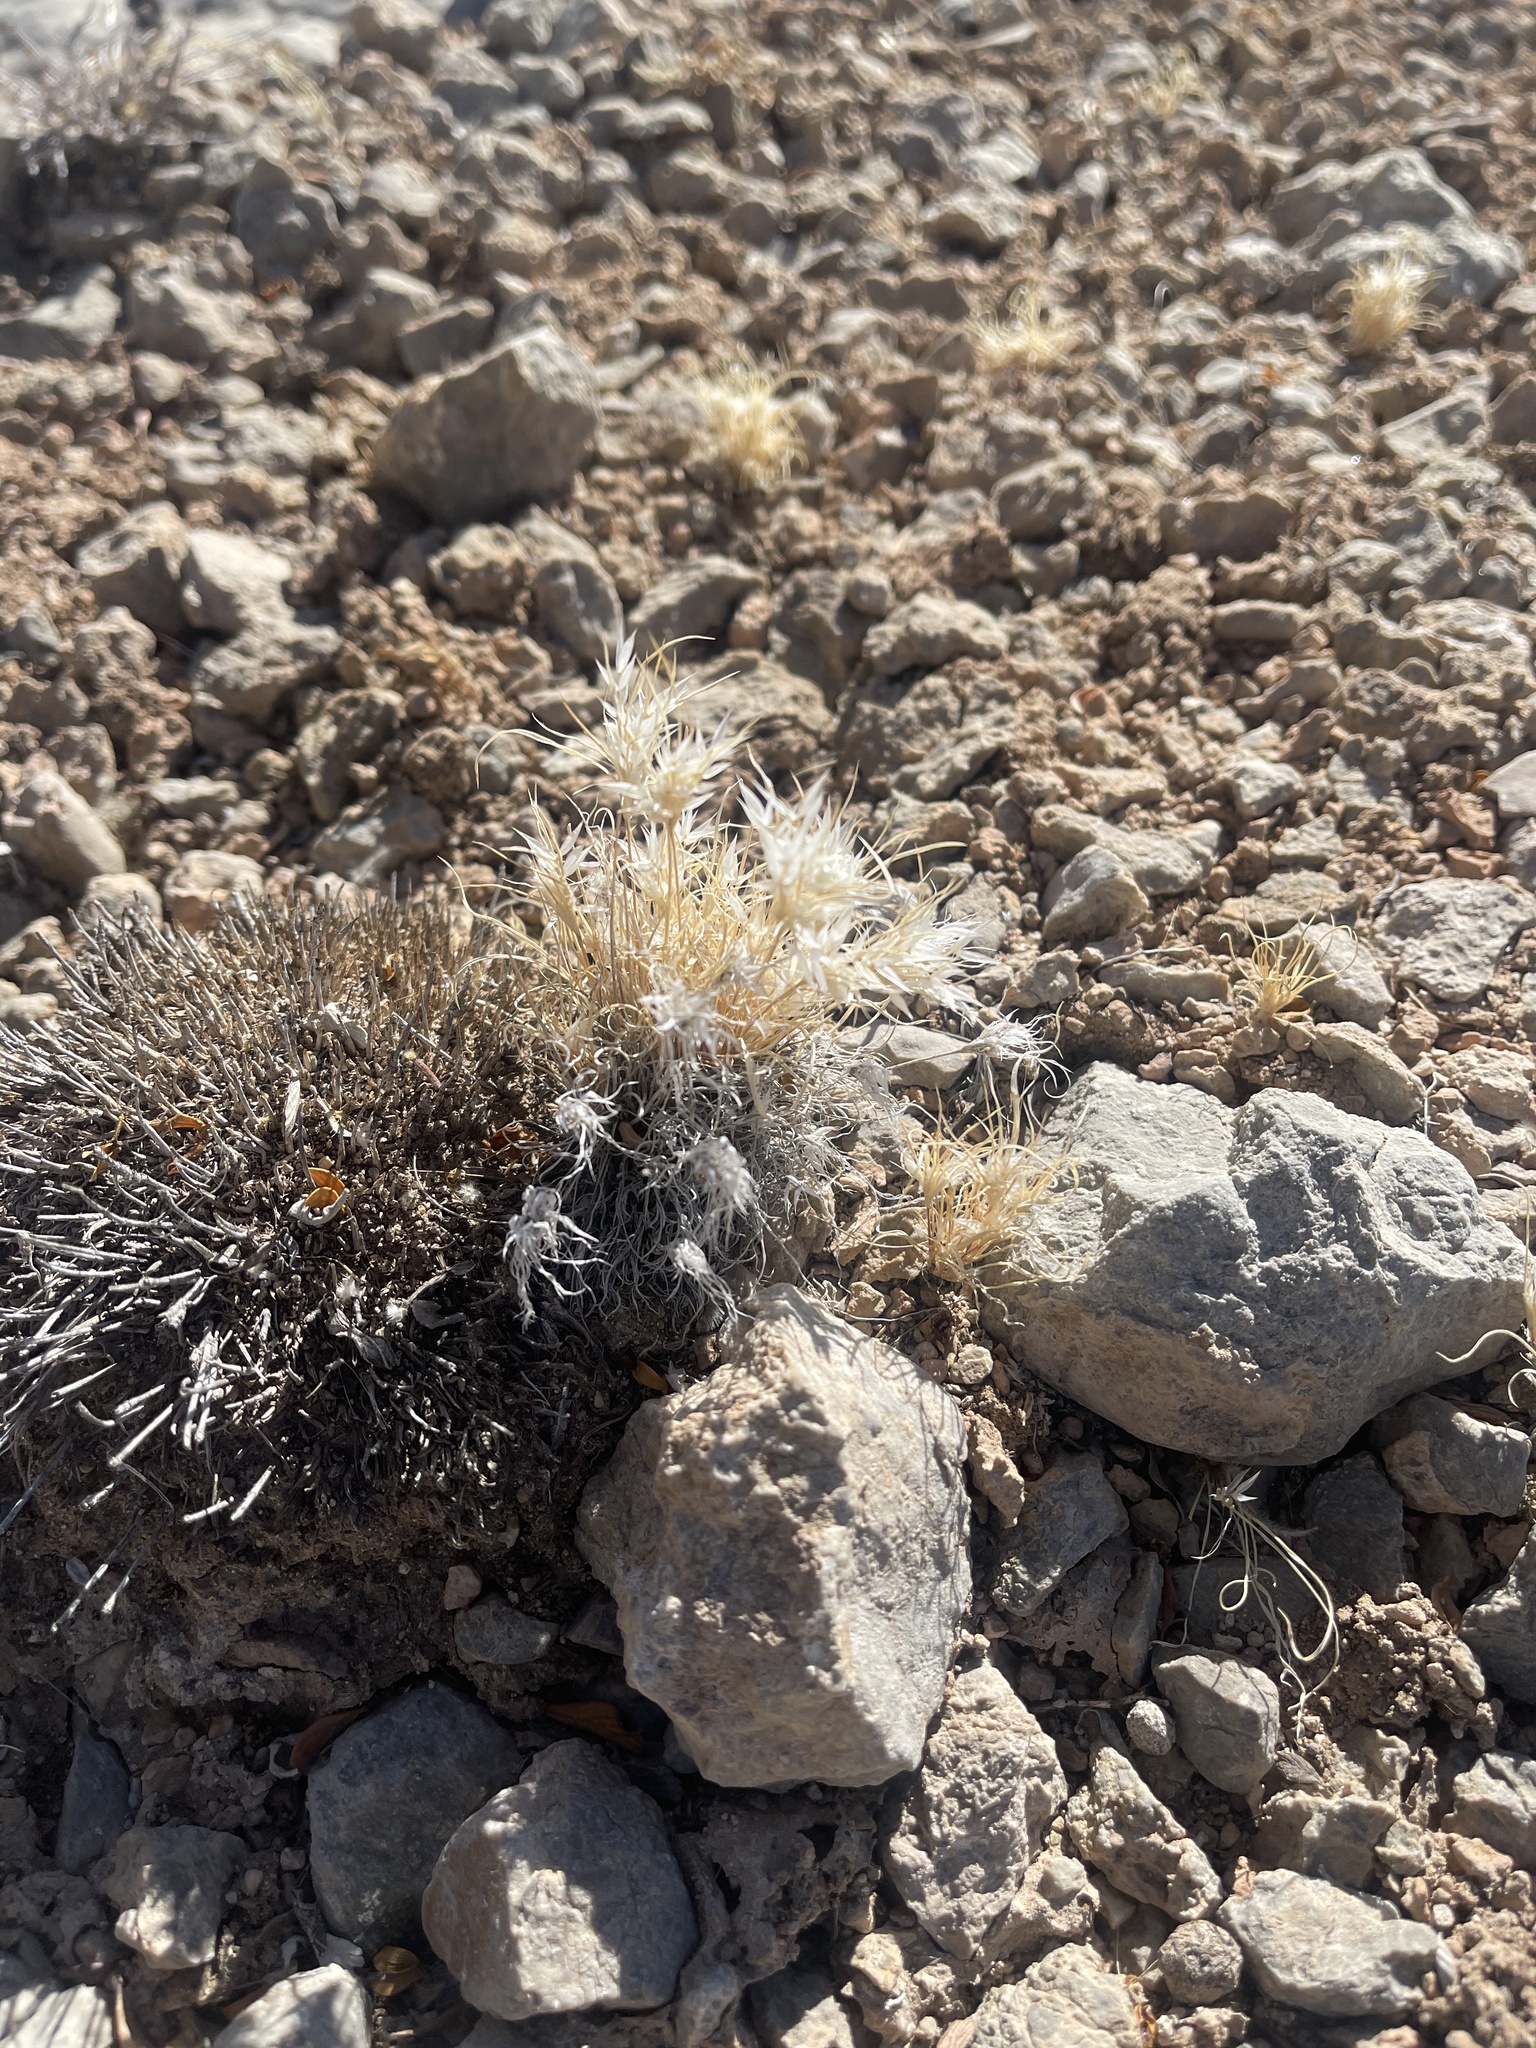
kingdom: Plantae
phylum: Tracheophyta
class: Liliopsida
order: Poales
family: Poaceae
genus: Dasyochloa
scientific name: Dasyochloa pulchella
